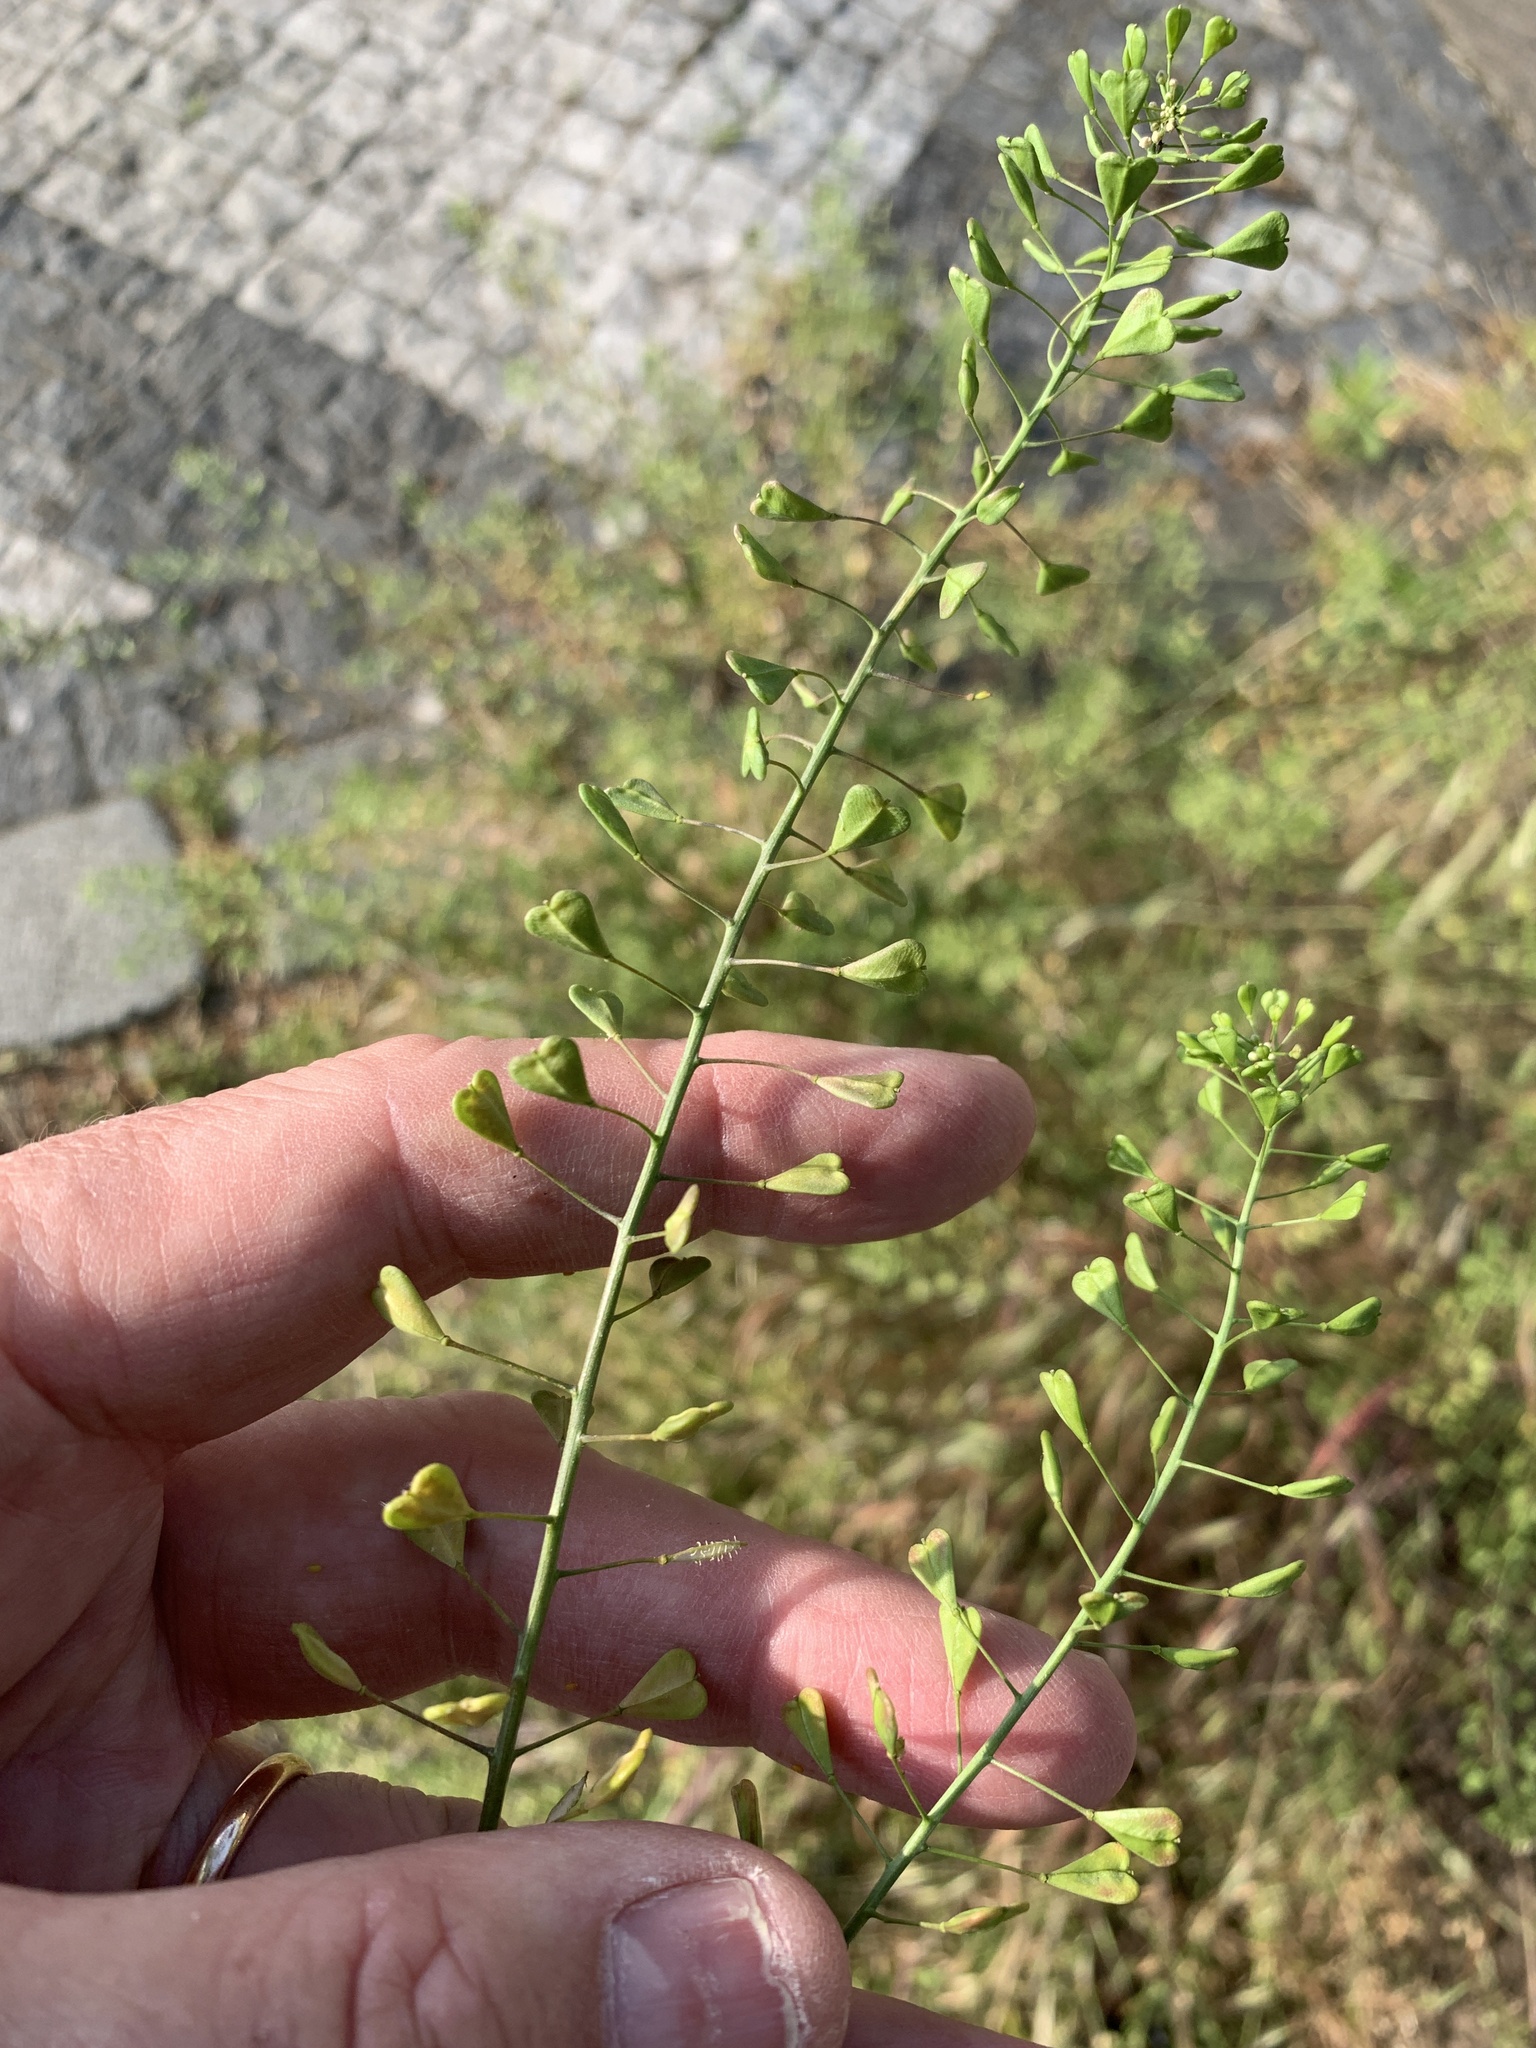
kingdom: Plantae
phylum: Tracheophyta
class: Magnoliopsida
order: Brassicales
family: Brassicaceae
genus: Capsella
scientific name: Capsella bursa-pastoris
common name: Shepherd's purse
